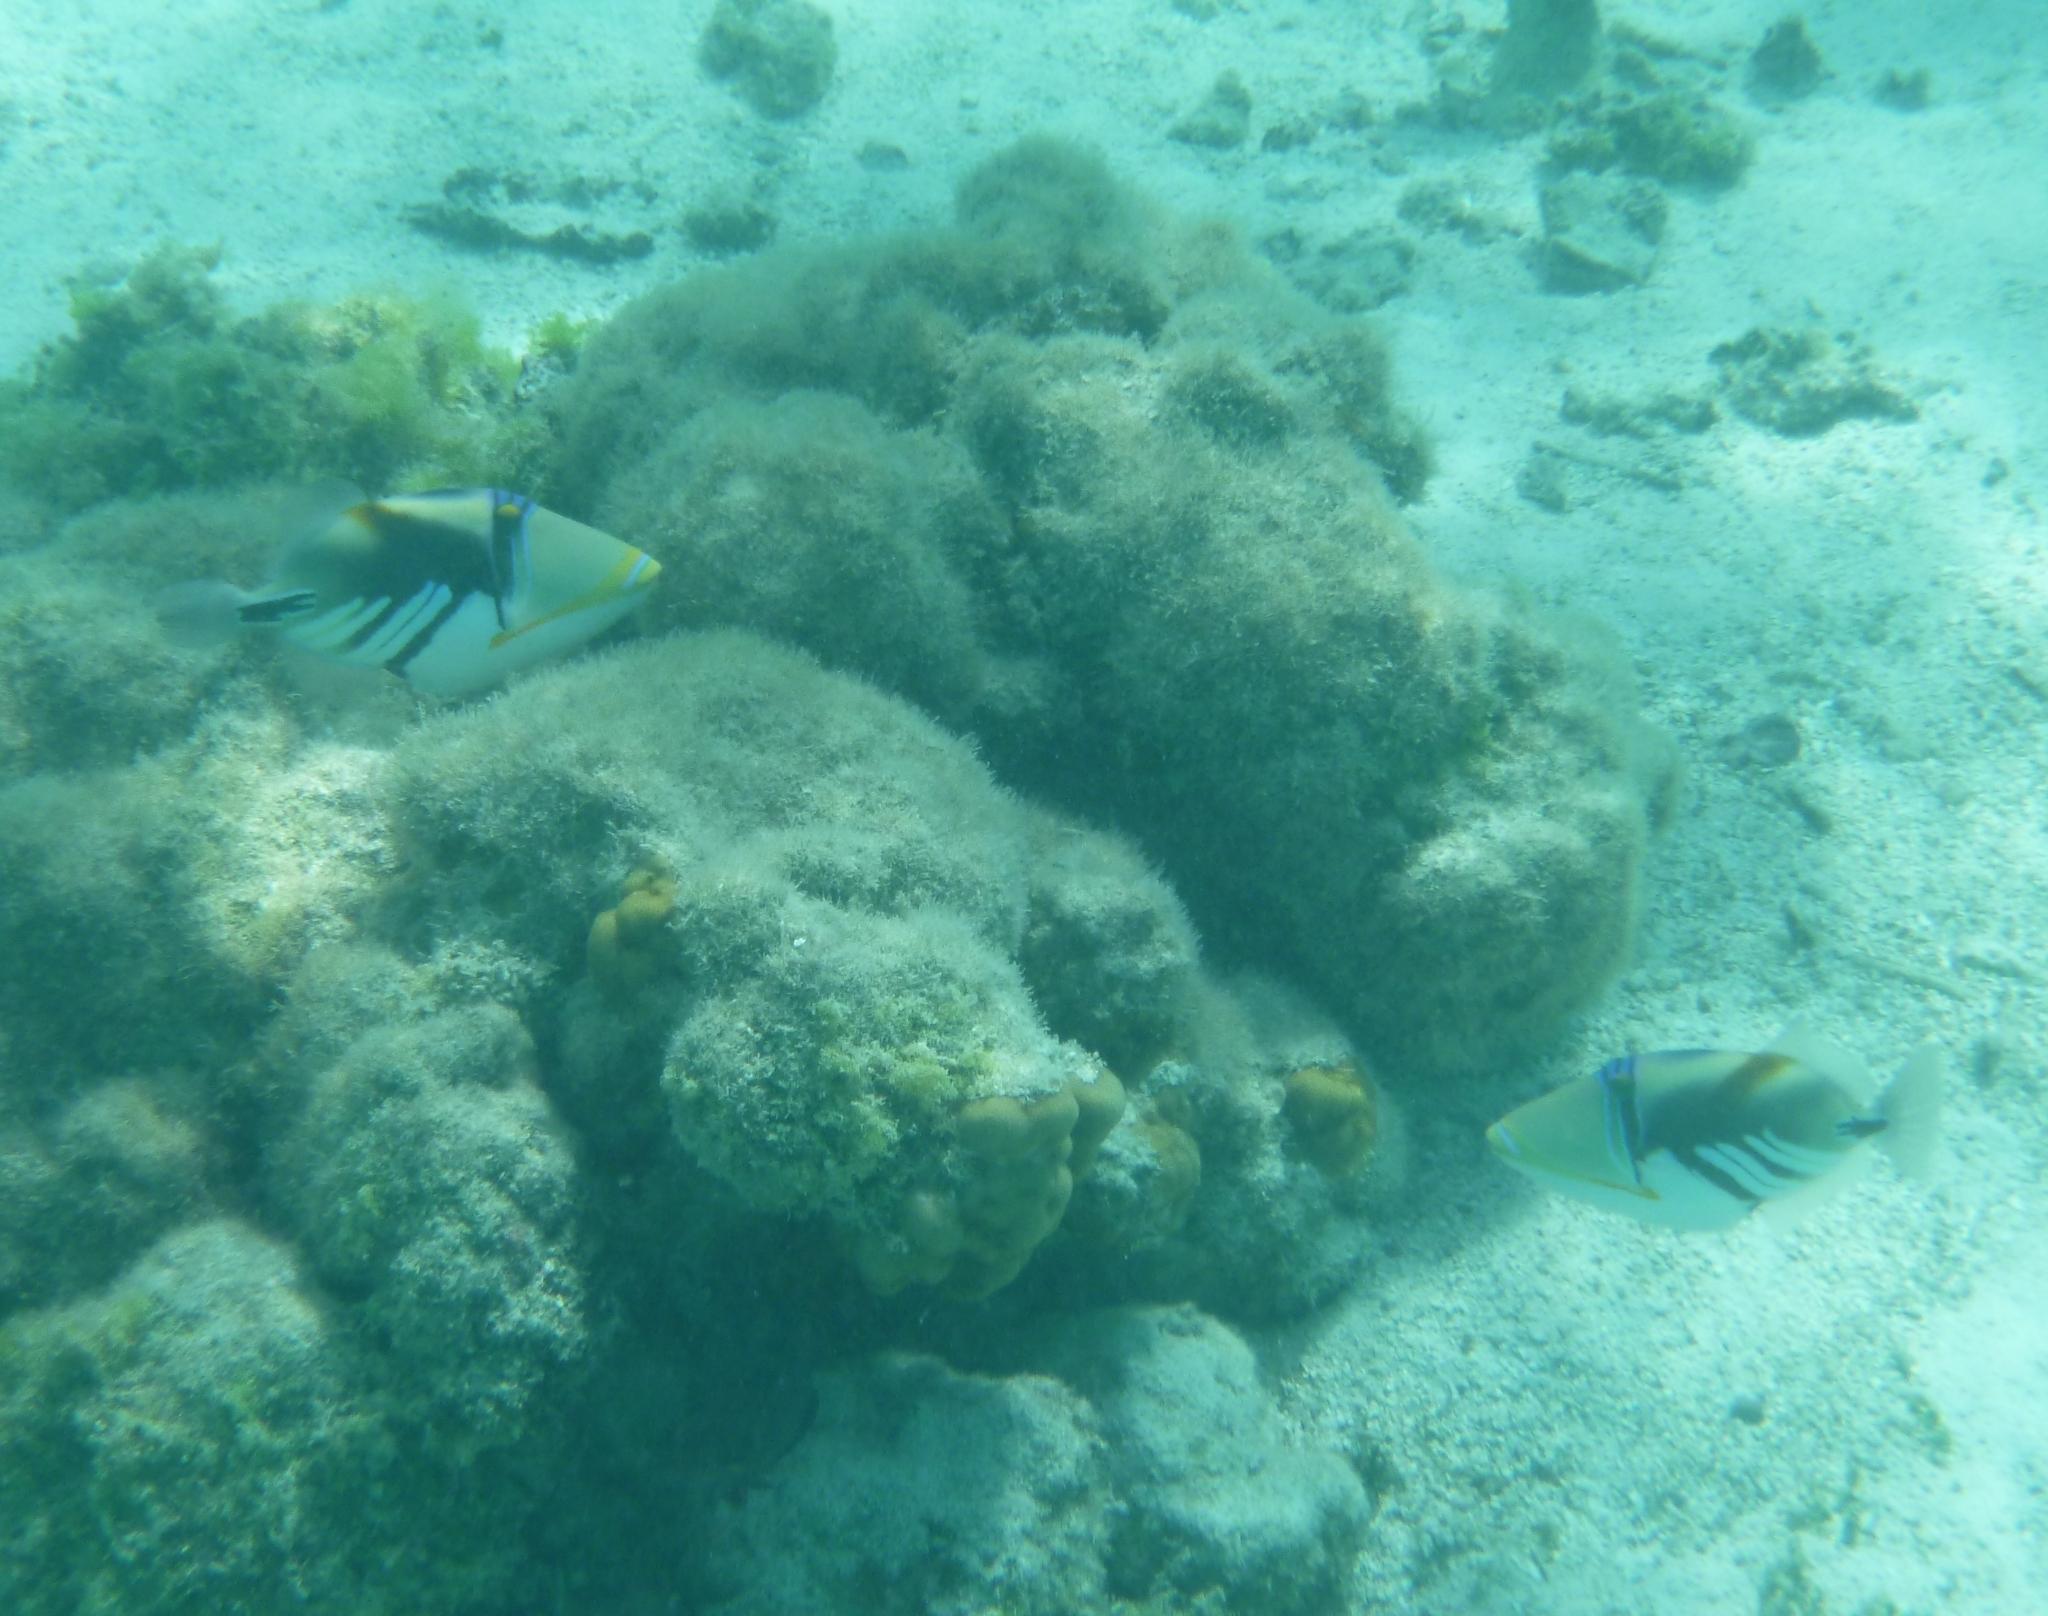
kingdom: Animalia
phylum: Chordata
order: Tetraodontiformes
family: Balistidae
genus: Rhinecanthus
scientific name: Rhinecanthus aculeatus
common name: White-banded triggerfish
